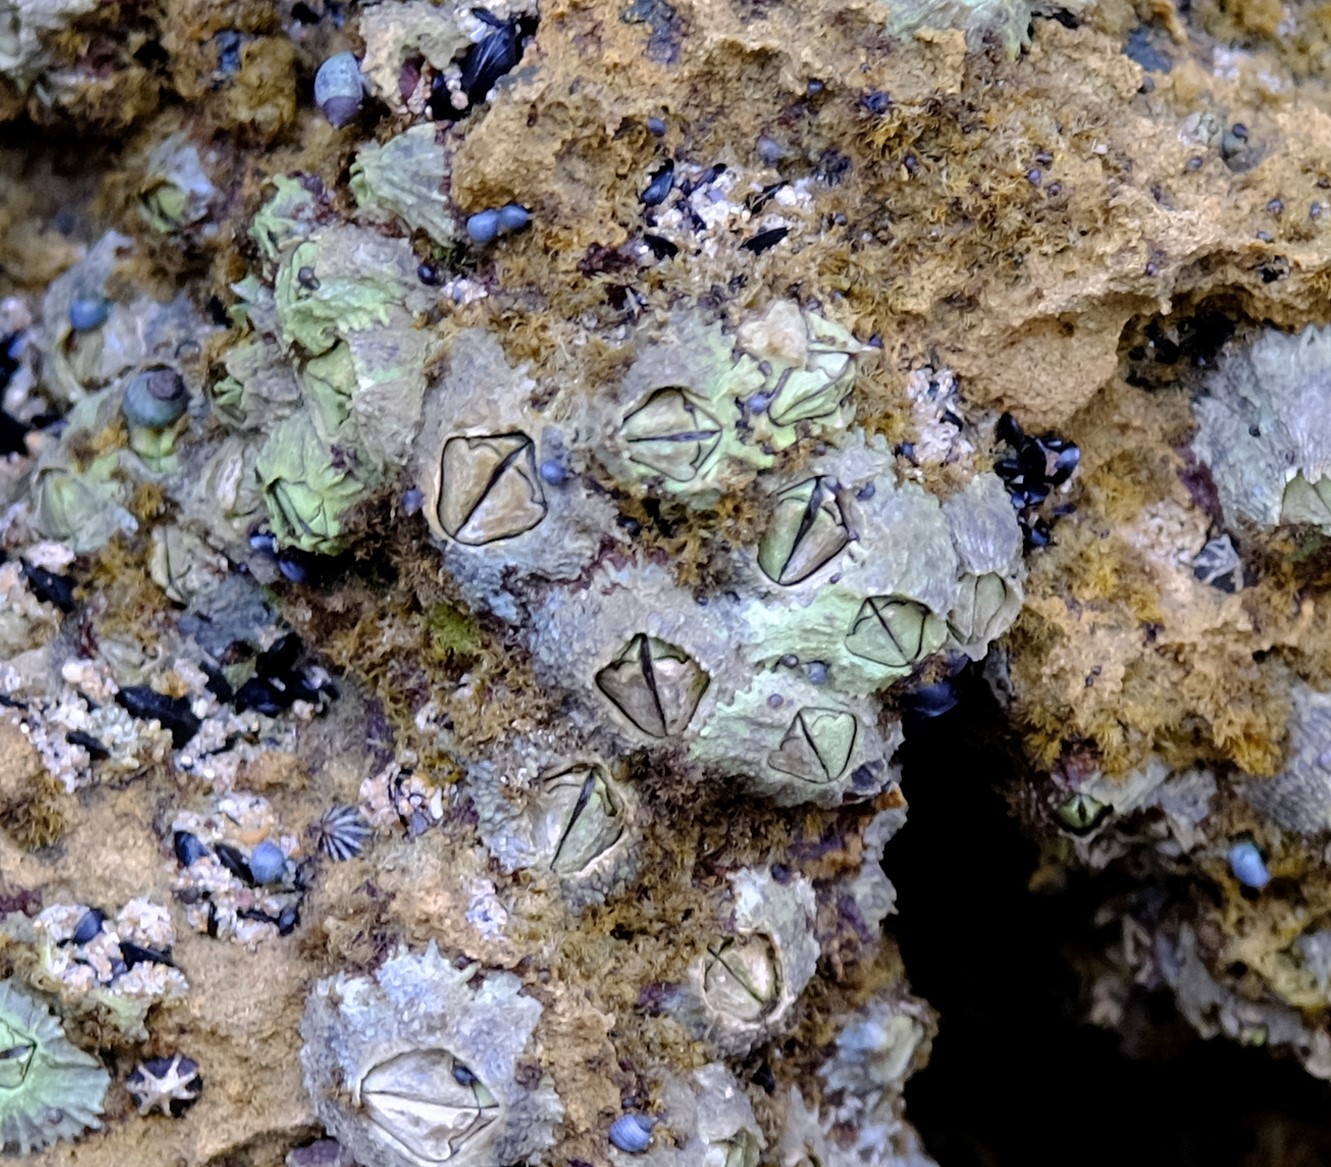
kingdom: Animalia
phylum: Arthropoda
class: Maxillopoda
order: Sessilia
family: Tetraclitidae
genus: Tetraclitella
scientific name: Tetraclitella purpurascens
